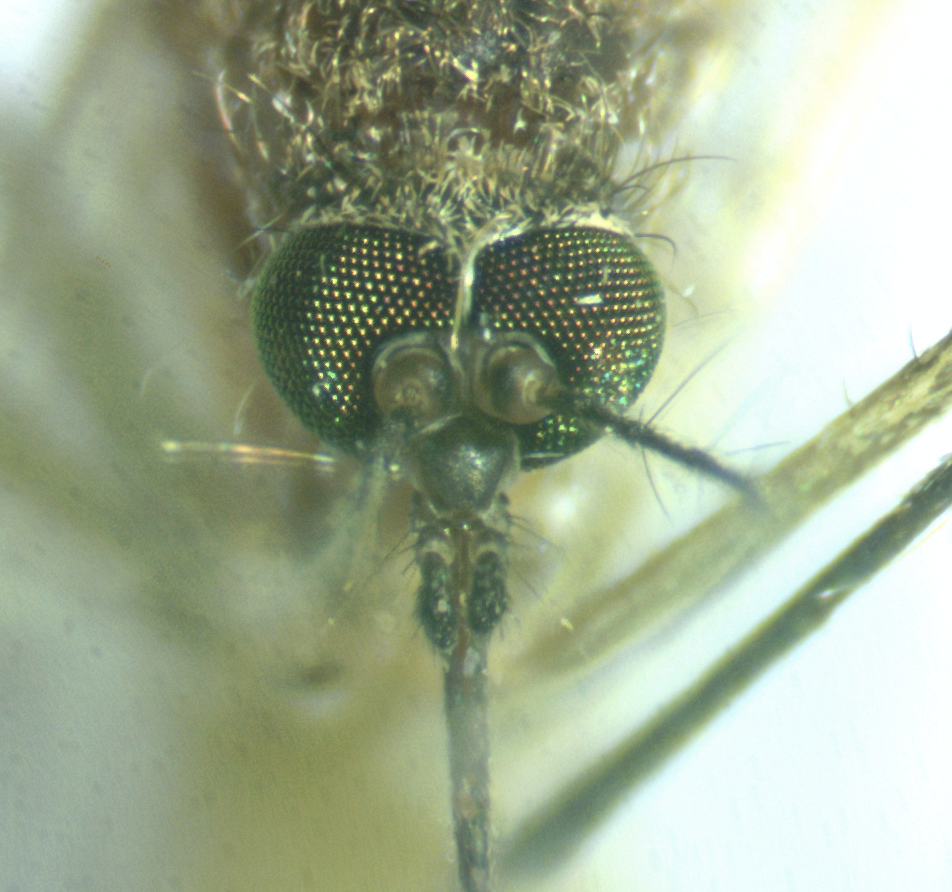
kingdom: Animalia
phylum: Arthropoda
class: Insecta
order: Diptera
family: Culicidae
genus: Culex
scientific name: Culex quinquefasciatus
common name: Southern house mosquito
